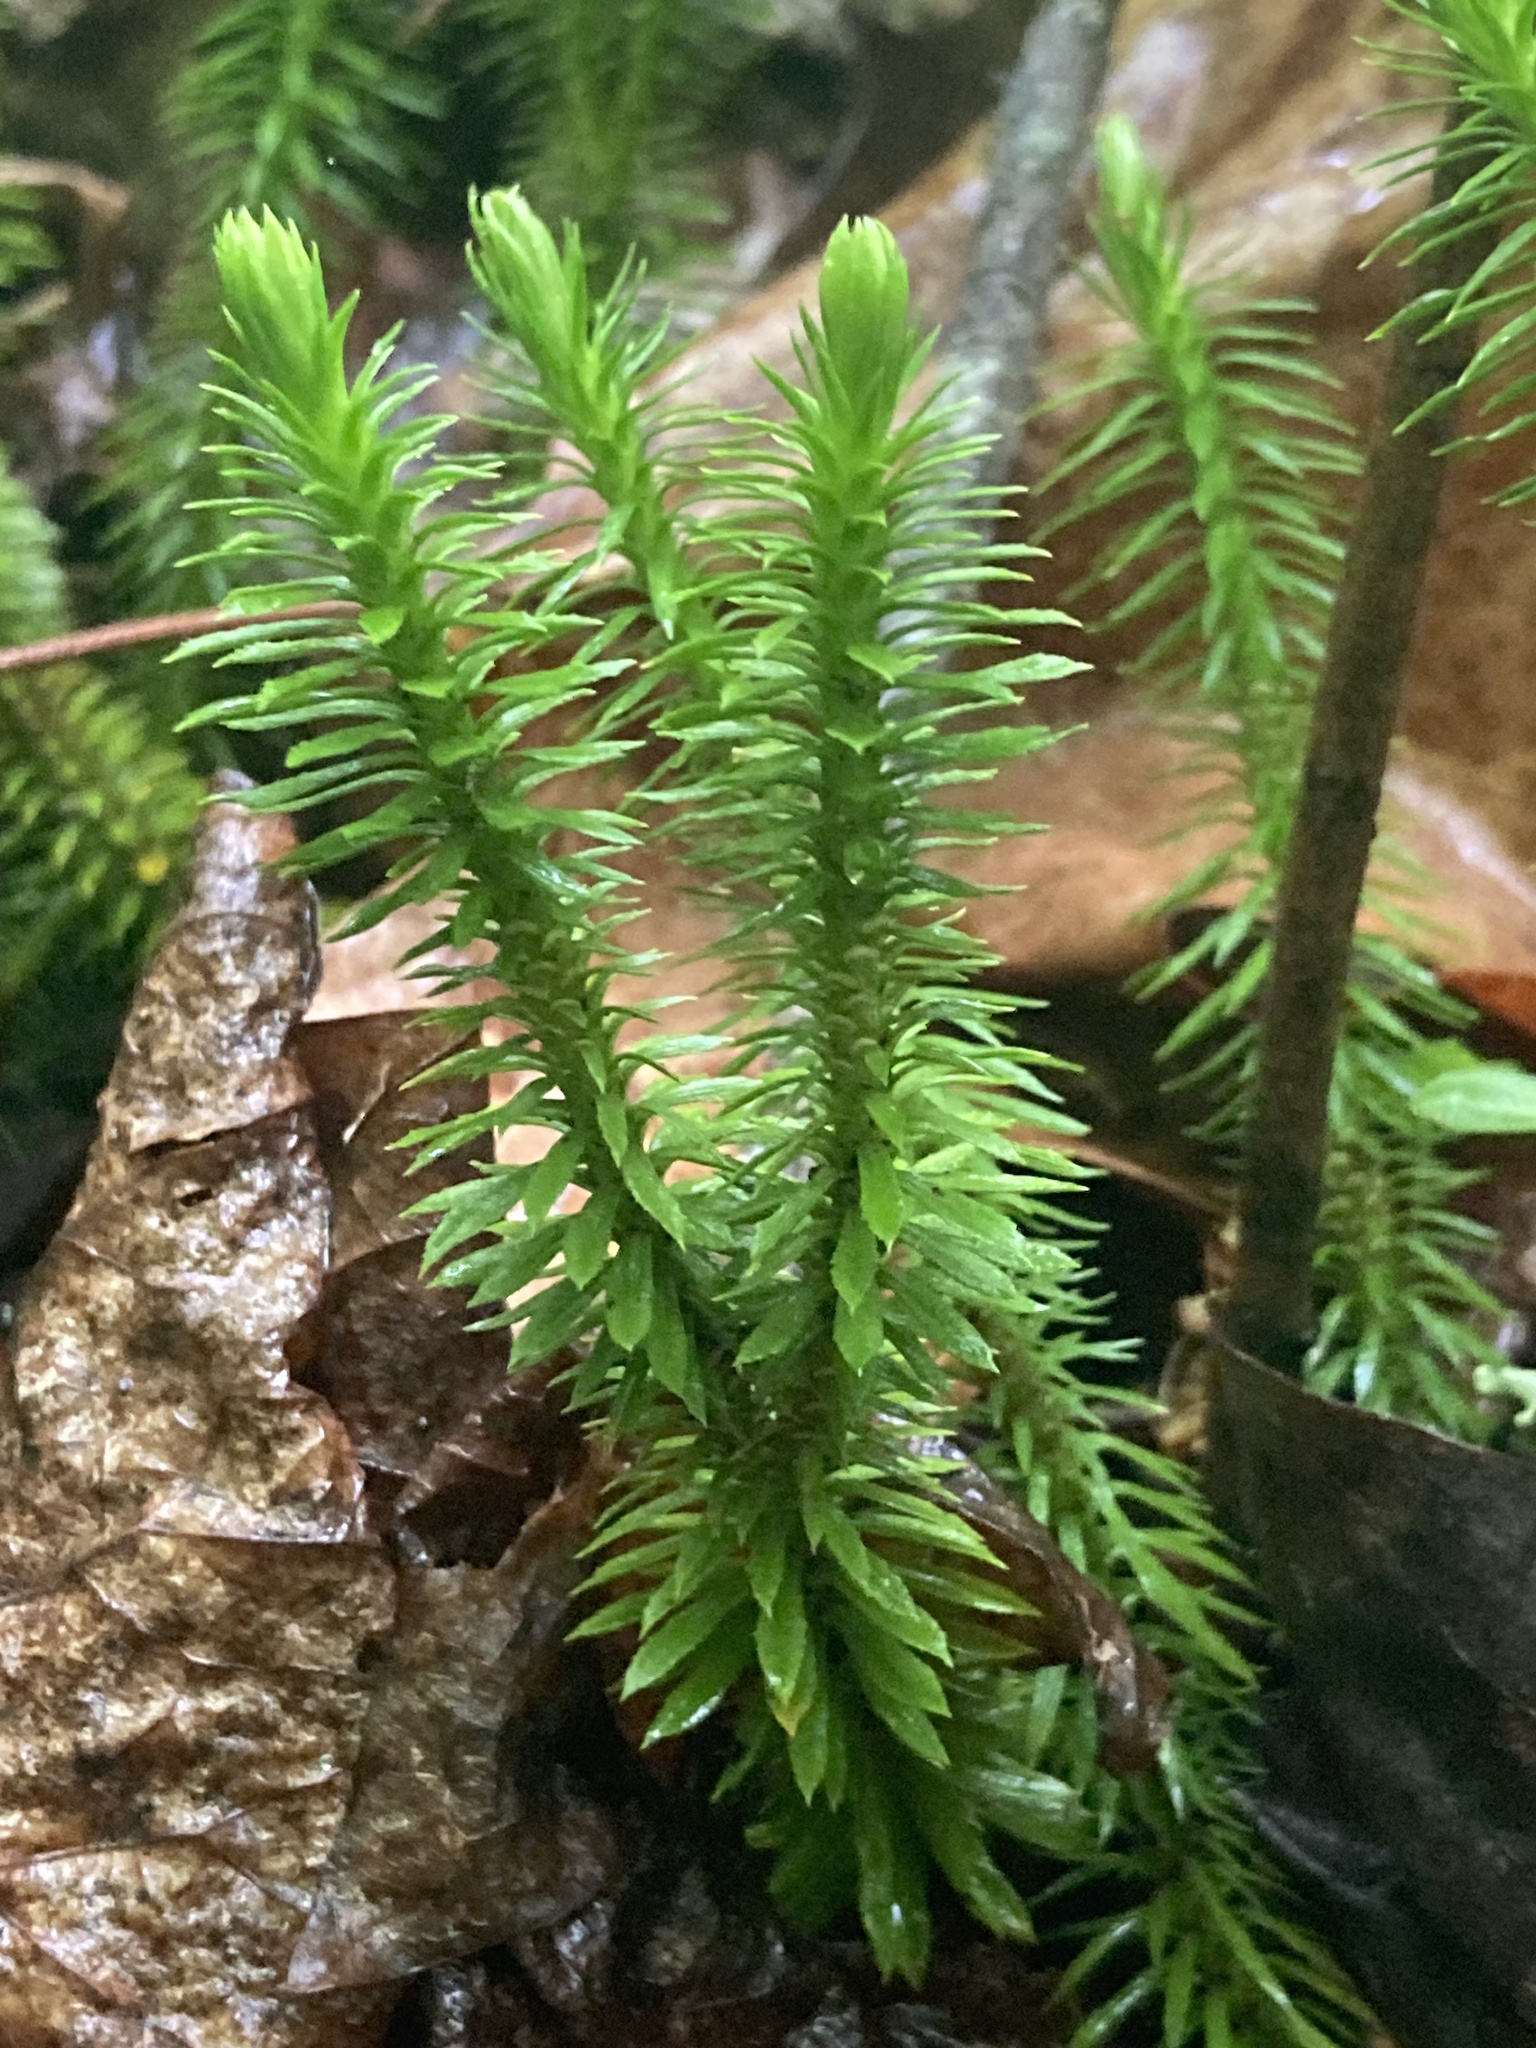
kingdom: Plantae
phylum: Tracheophyta
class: Lycopodiopsida
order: Lycopodiales
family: Lycopodiaceae
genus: Huperzia
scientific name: Huperzia lucidula
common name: Shining clubmoss
